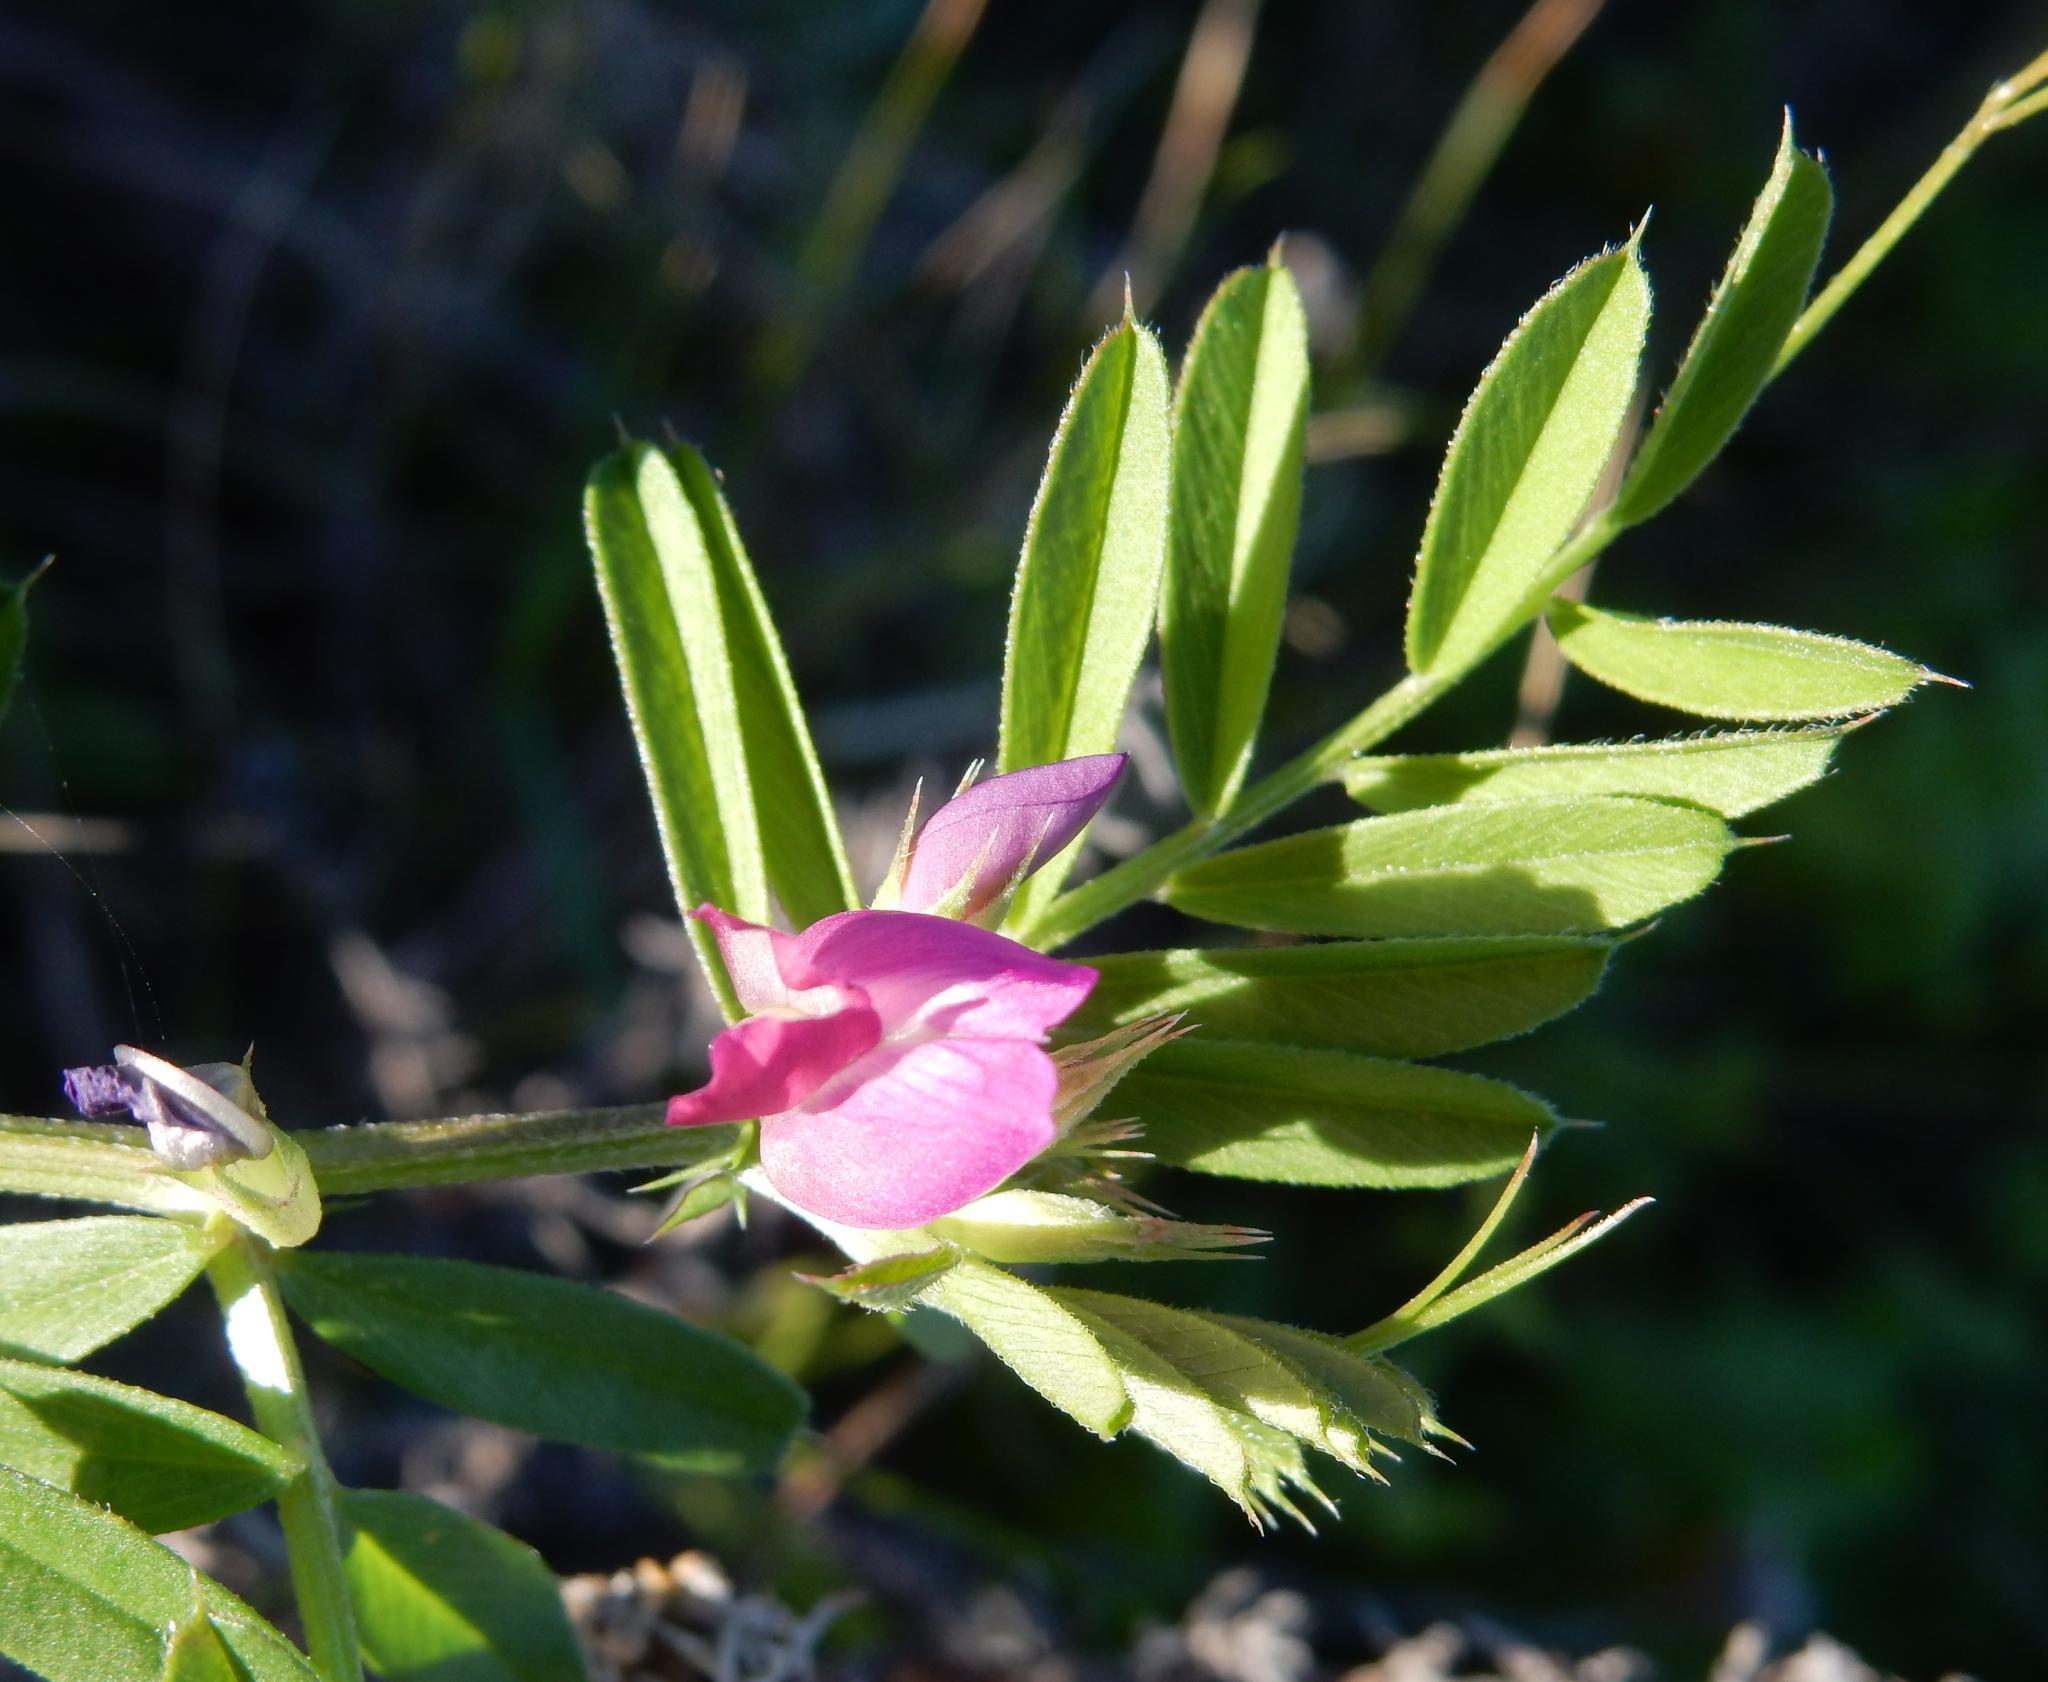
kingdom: Plantae
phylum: Tracheophyta
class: Magnoliopsida
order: Fabales
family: Fabaceae
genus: Vicia
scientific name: Vicia sativa
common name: Garden vetch
